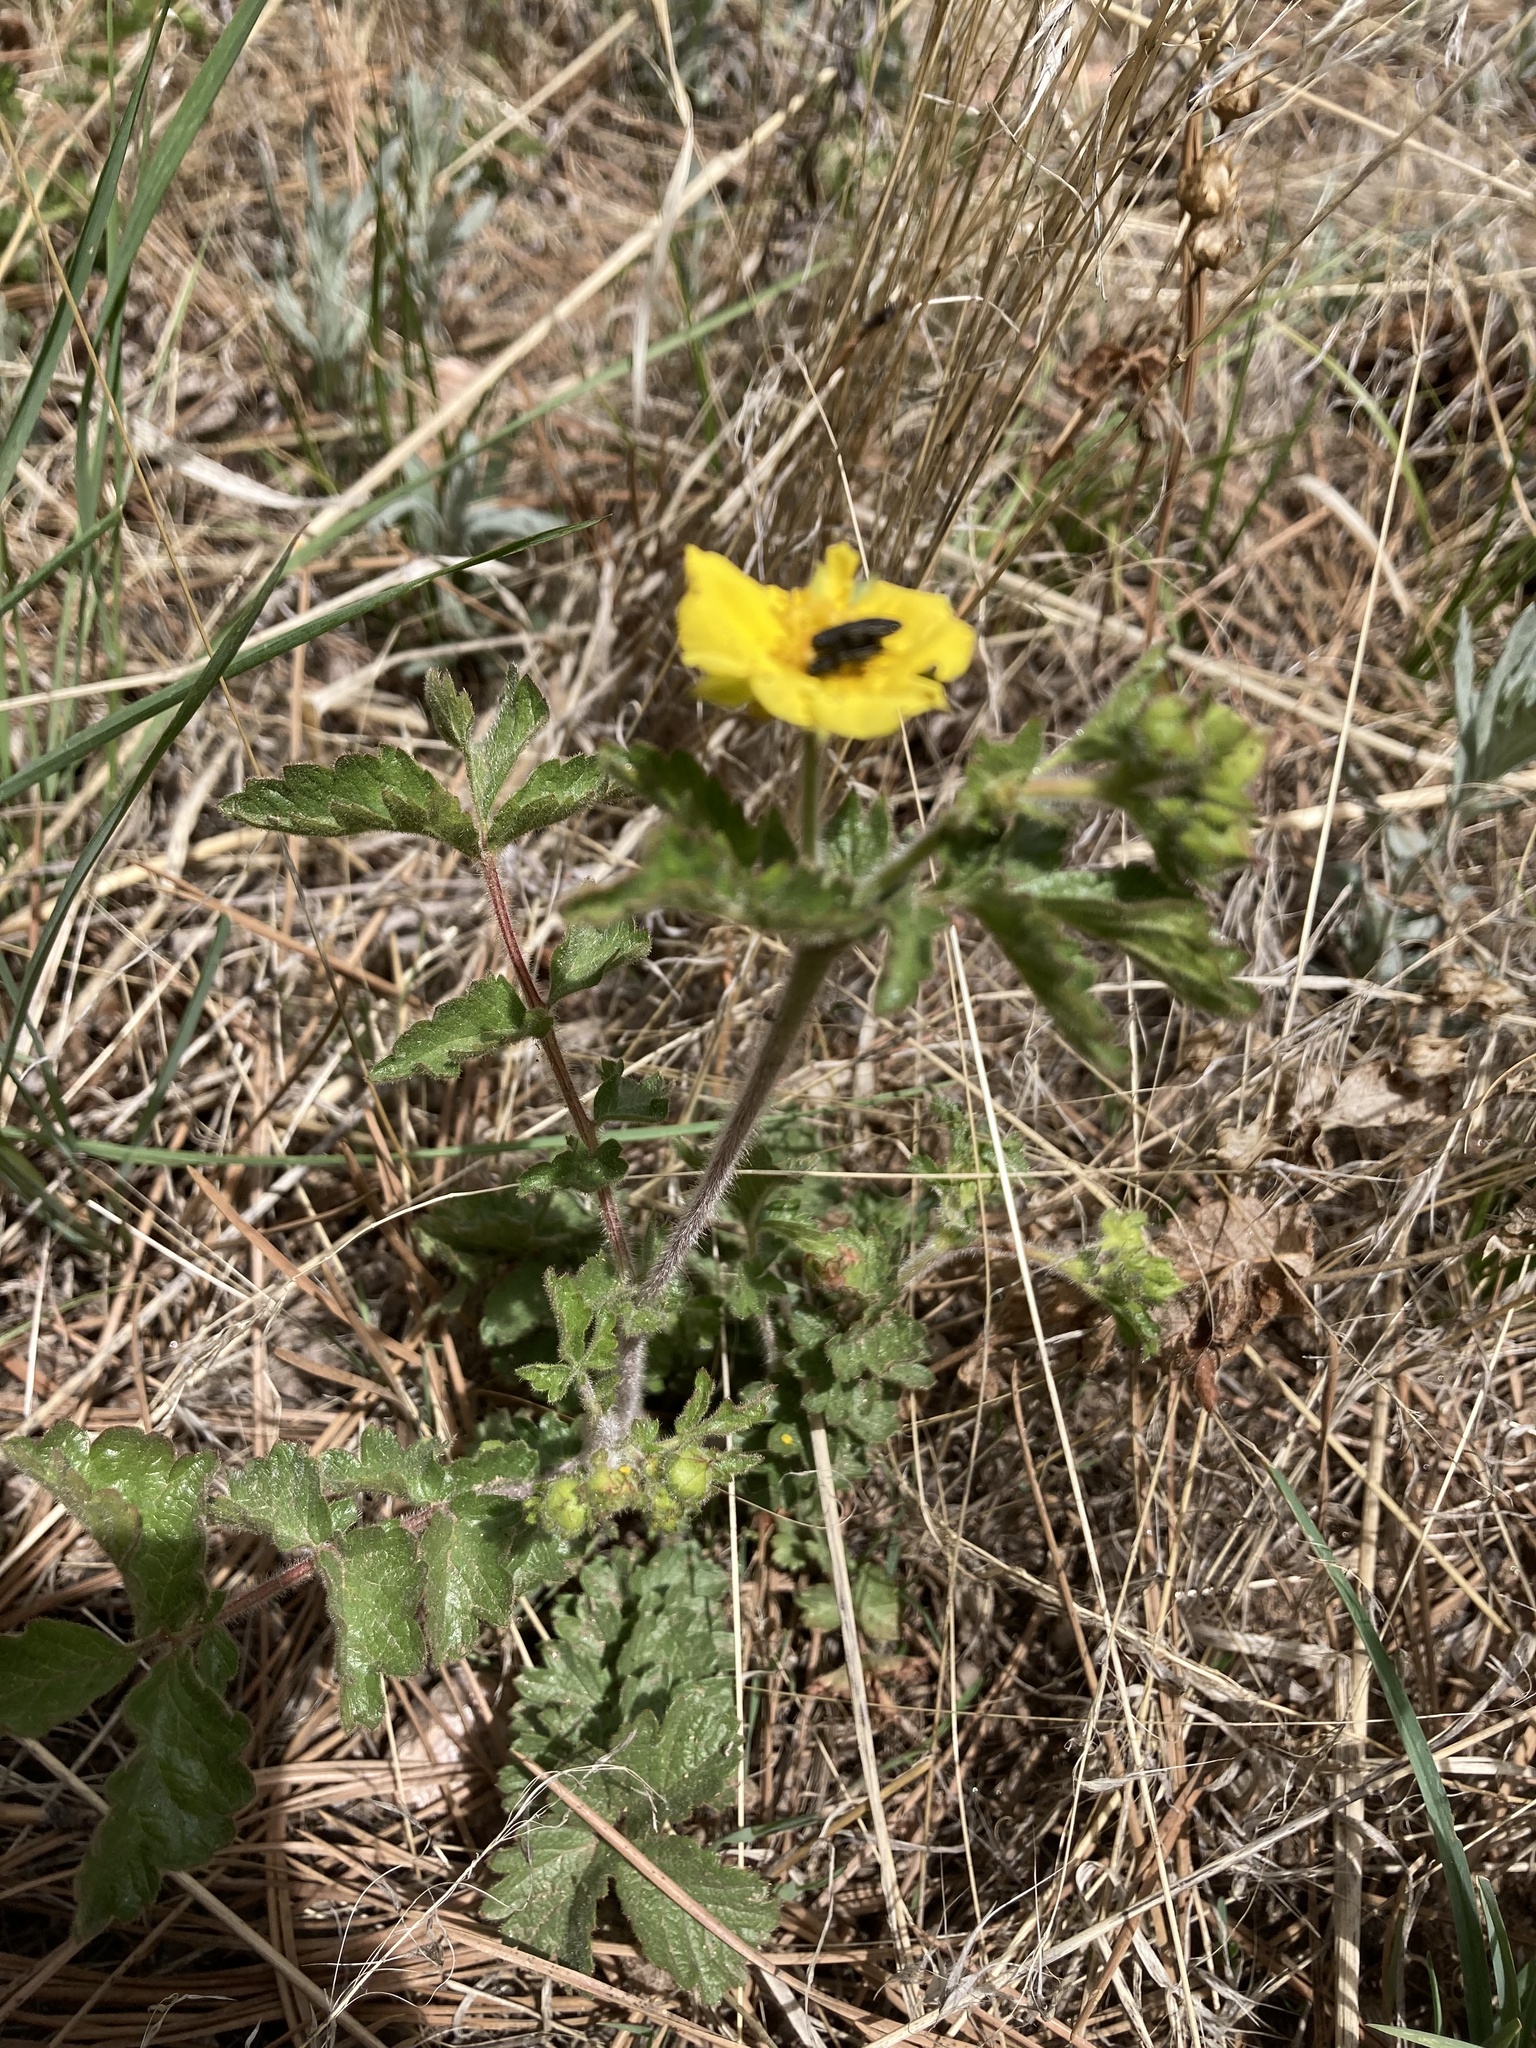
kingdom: Plantae
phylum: Tracheophyta
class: Magnoliopsida
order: Rosales
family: Rosaceae
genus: Drymocallis
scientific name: Drymocallis fissa
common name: Big-flowered cinquefoil
